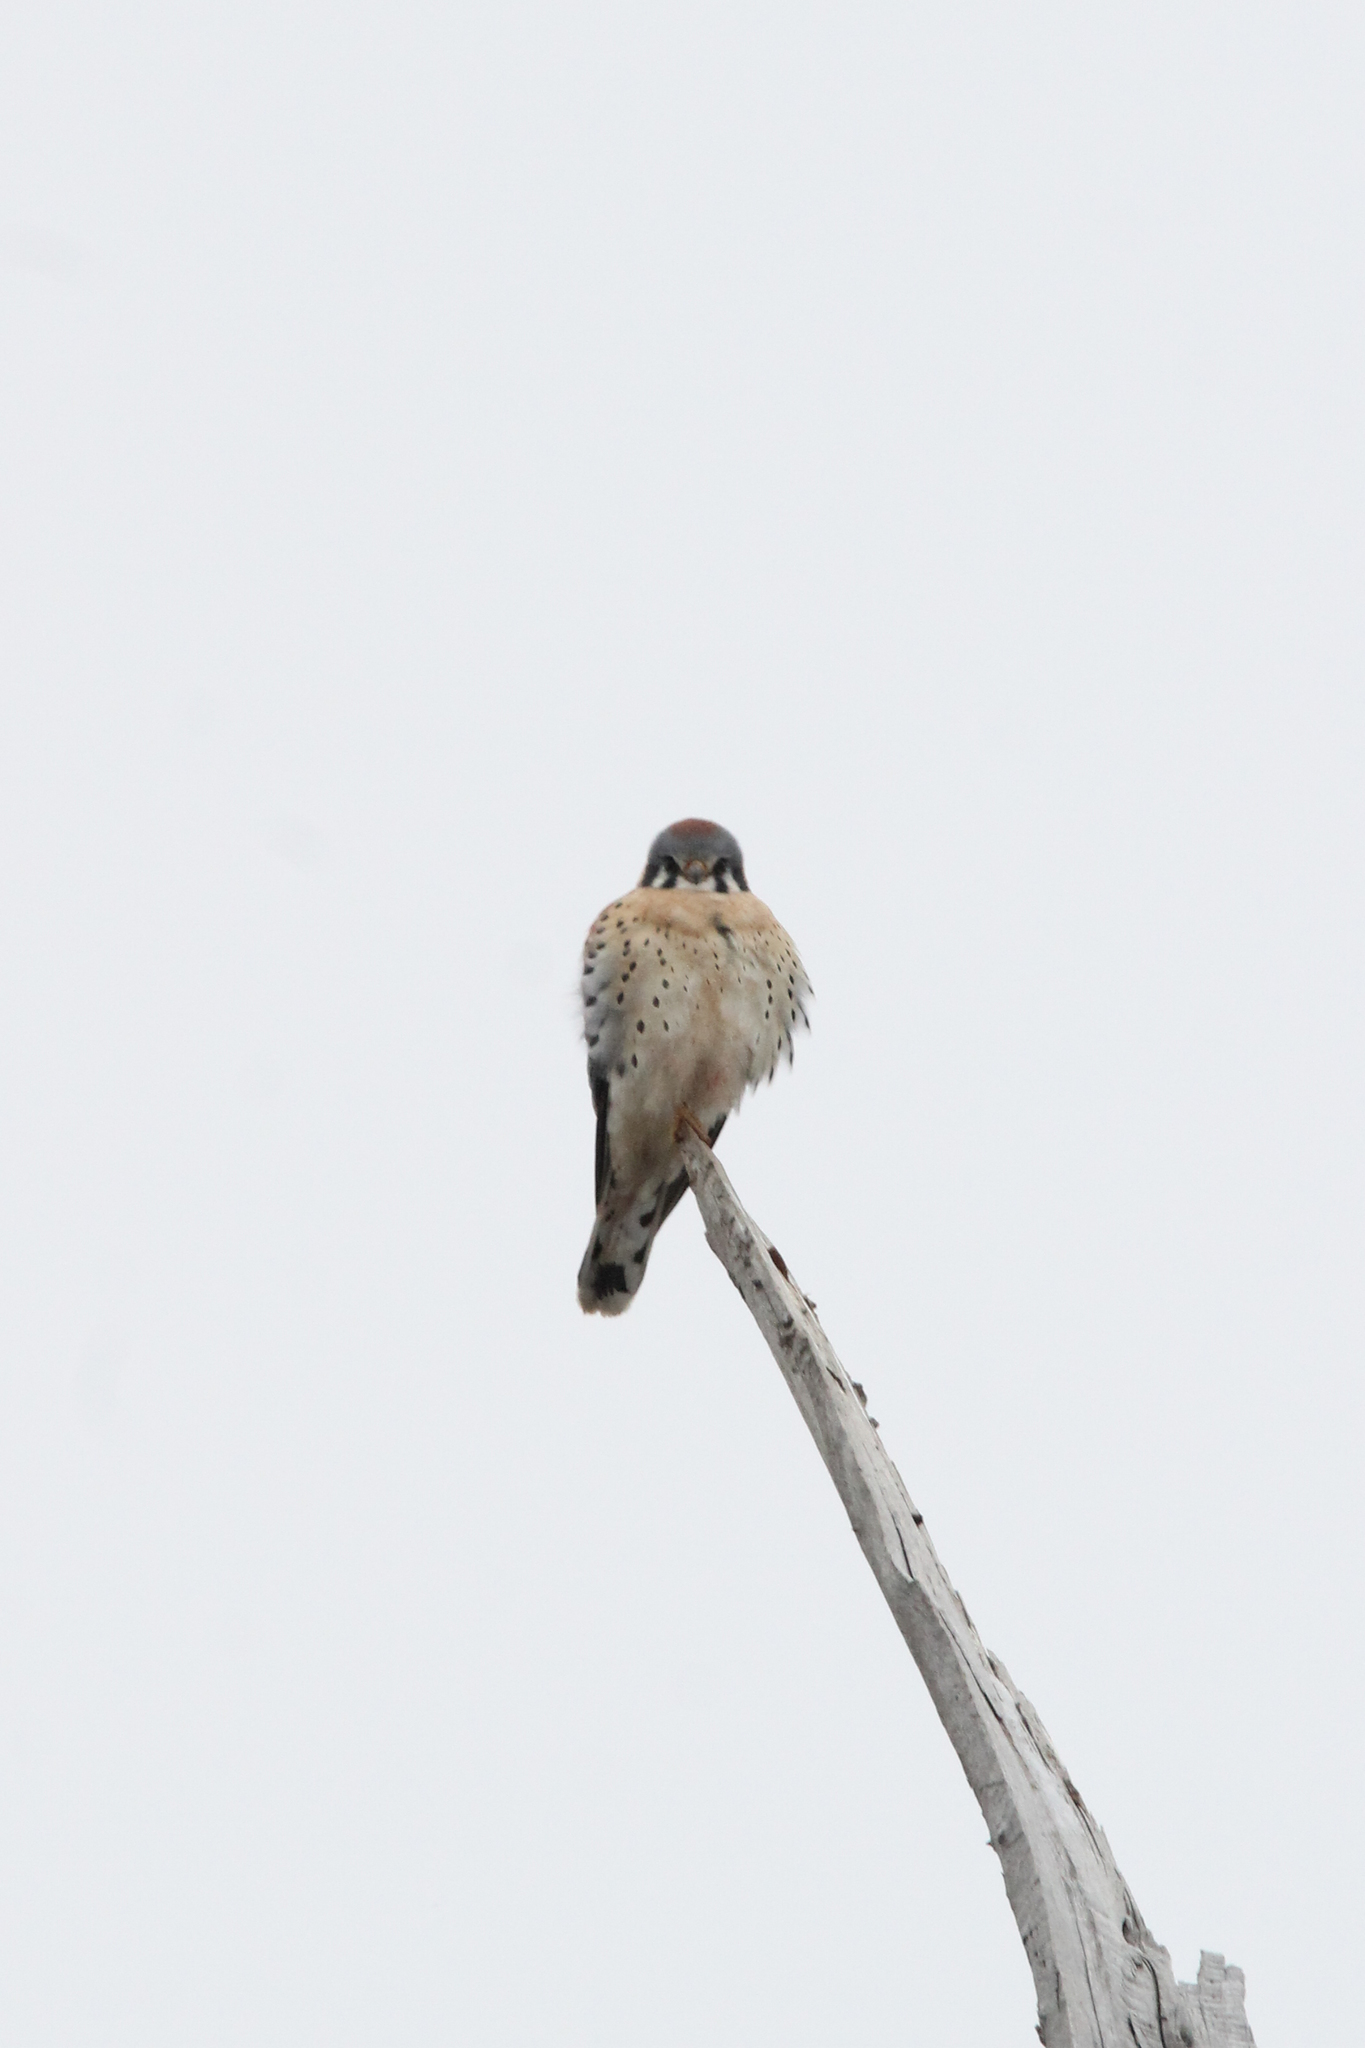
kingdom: Animalia
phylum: Chordata
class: Aves
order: Falconiformes
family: Falconidae
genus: Falco
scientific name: Falco sparverius
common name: American kestrel
